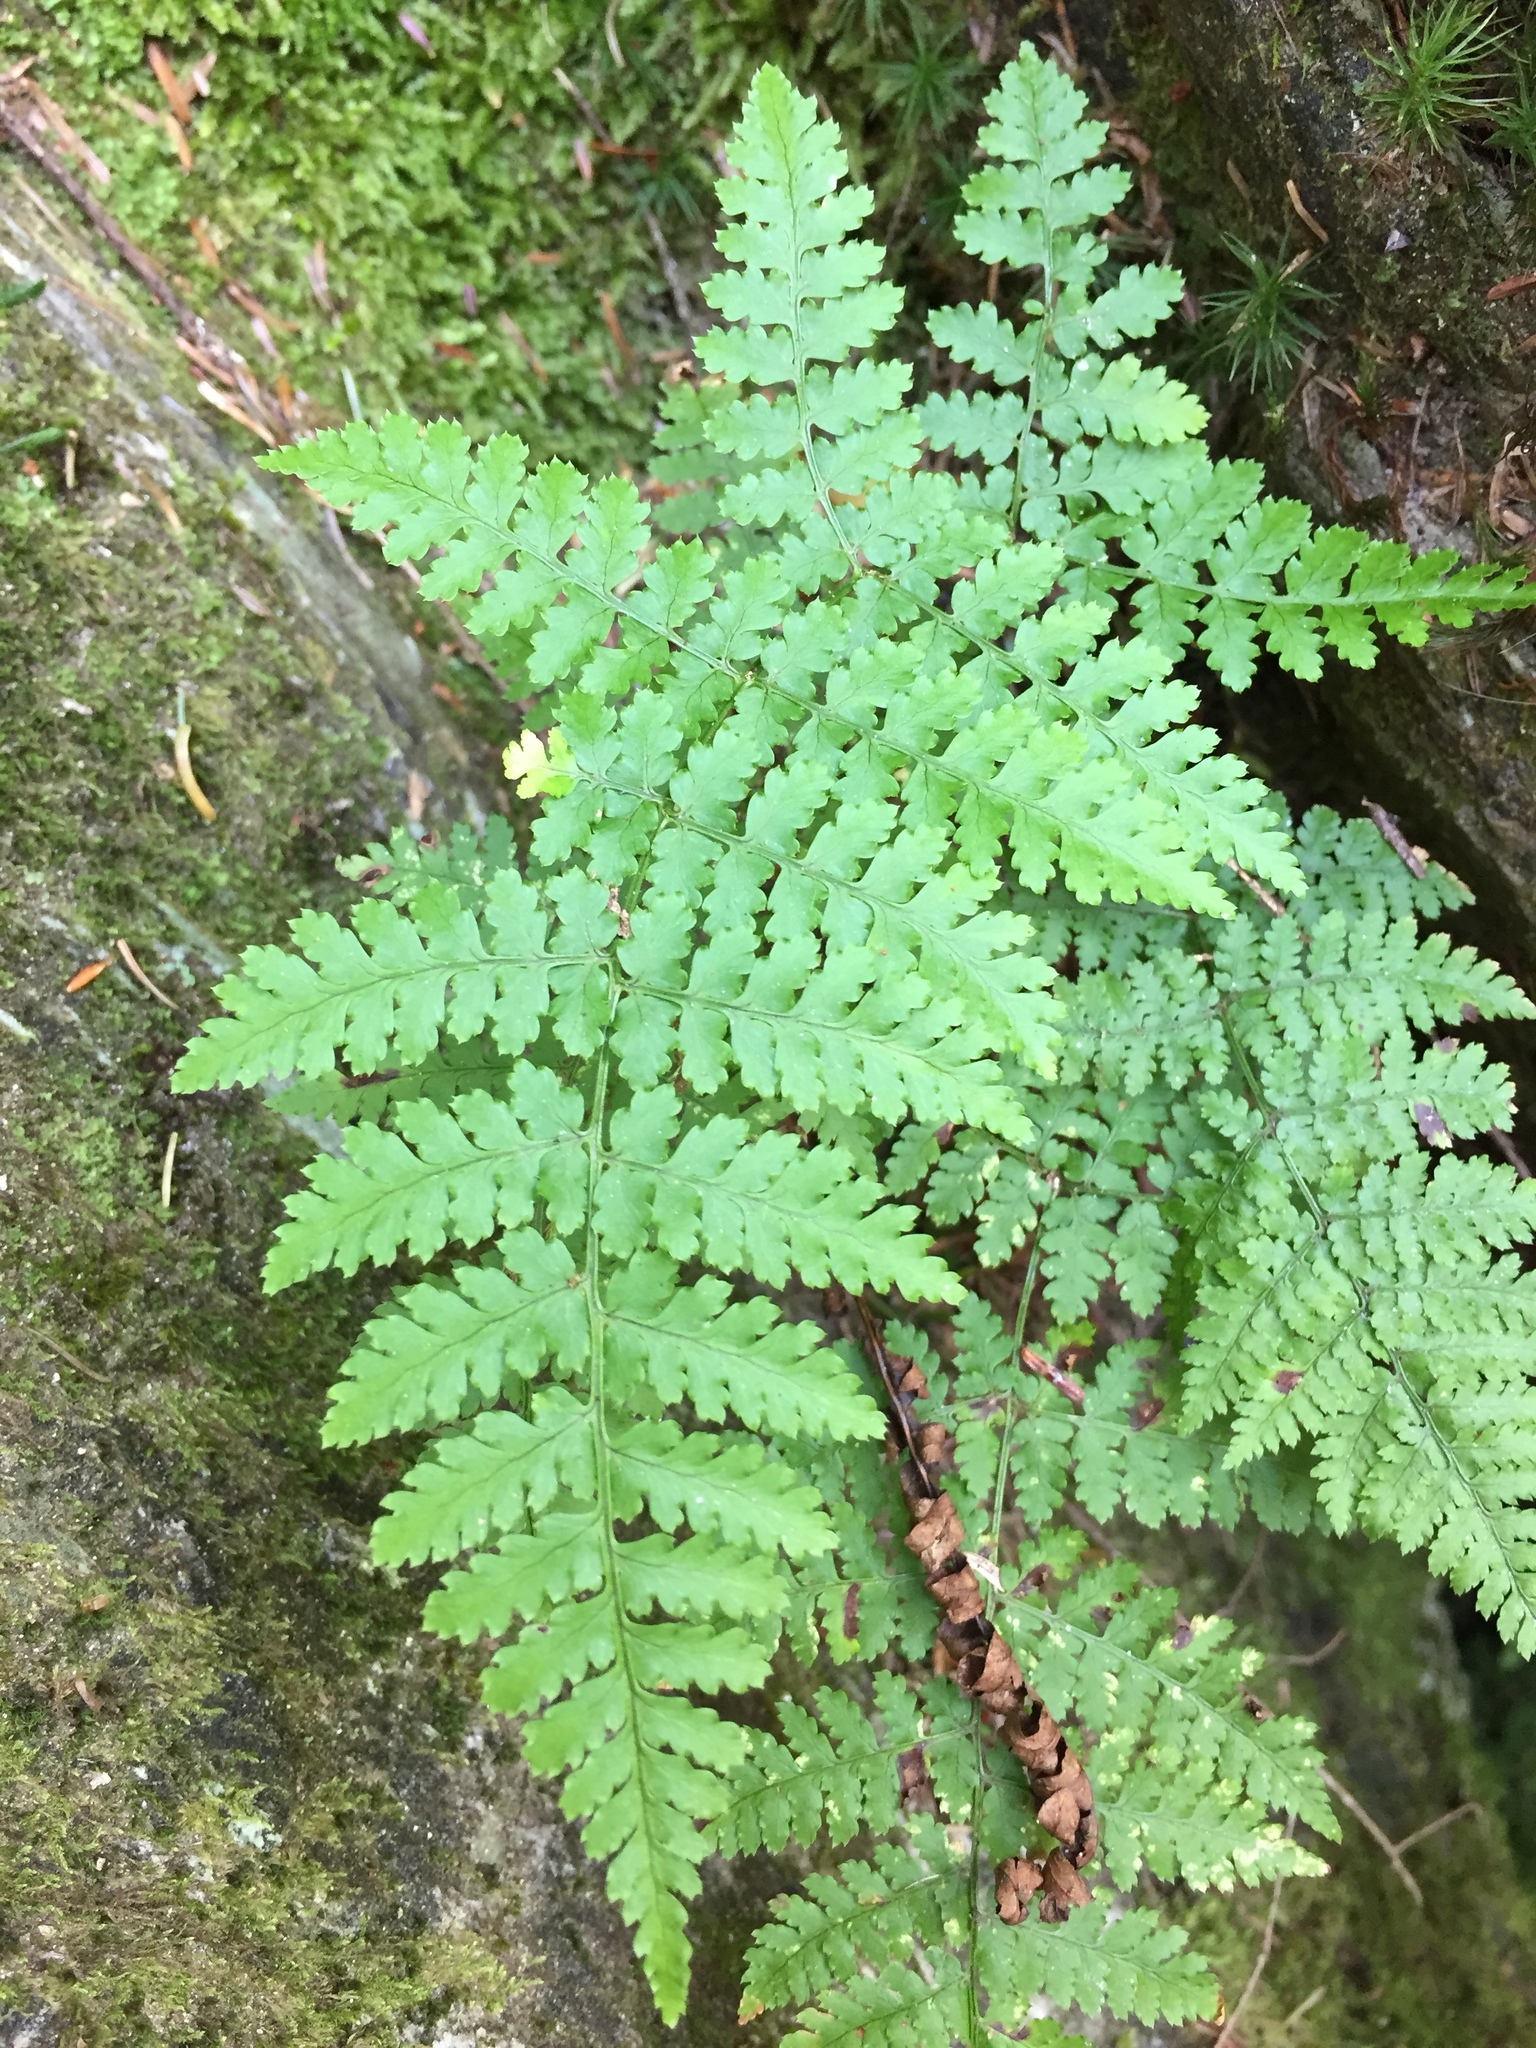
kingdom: Plantae
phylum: Tracheophyta
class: Polypodiopsida
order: Polypodiales
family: Dryopteridaceae
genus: Dryopteris
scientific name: Dryopteris intermedia
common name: Evergreen wood fern
